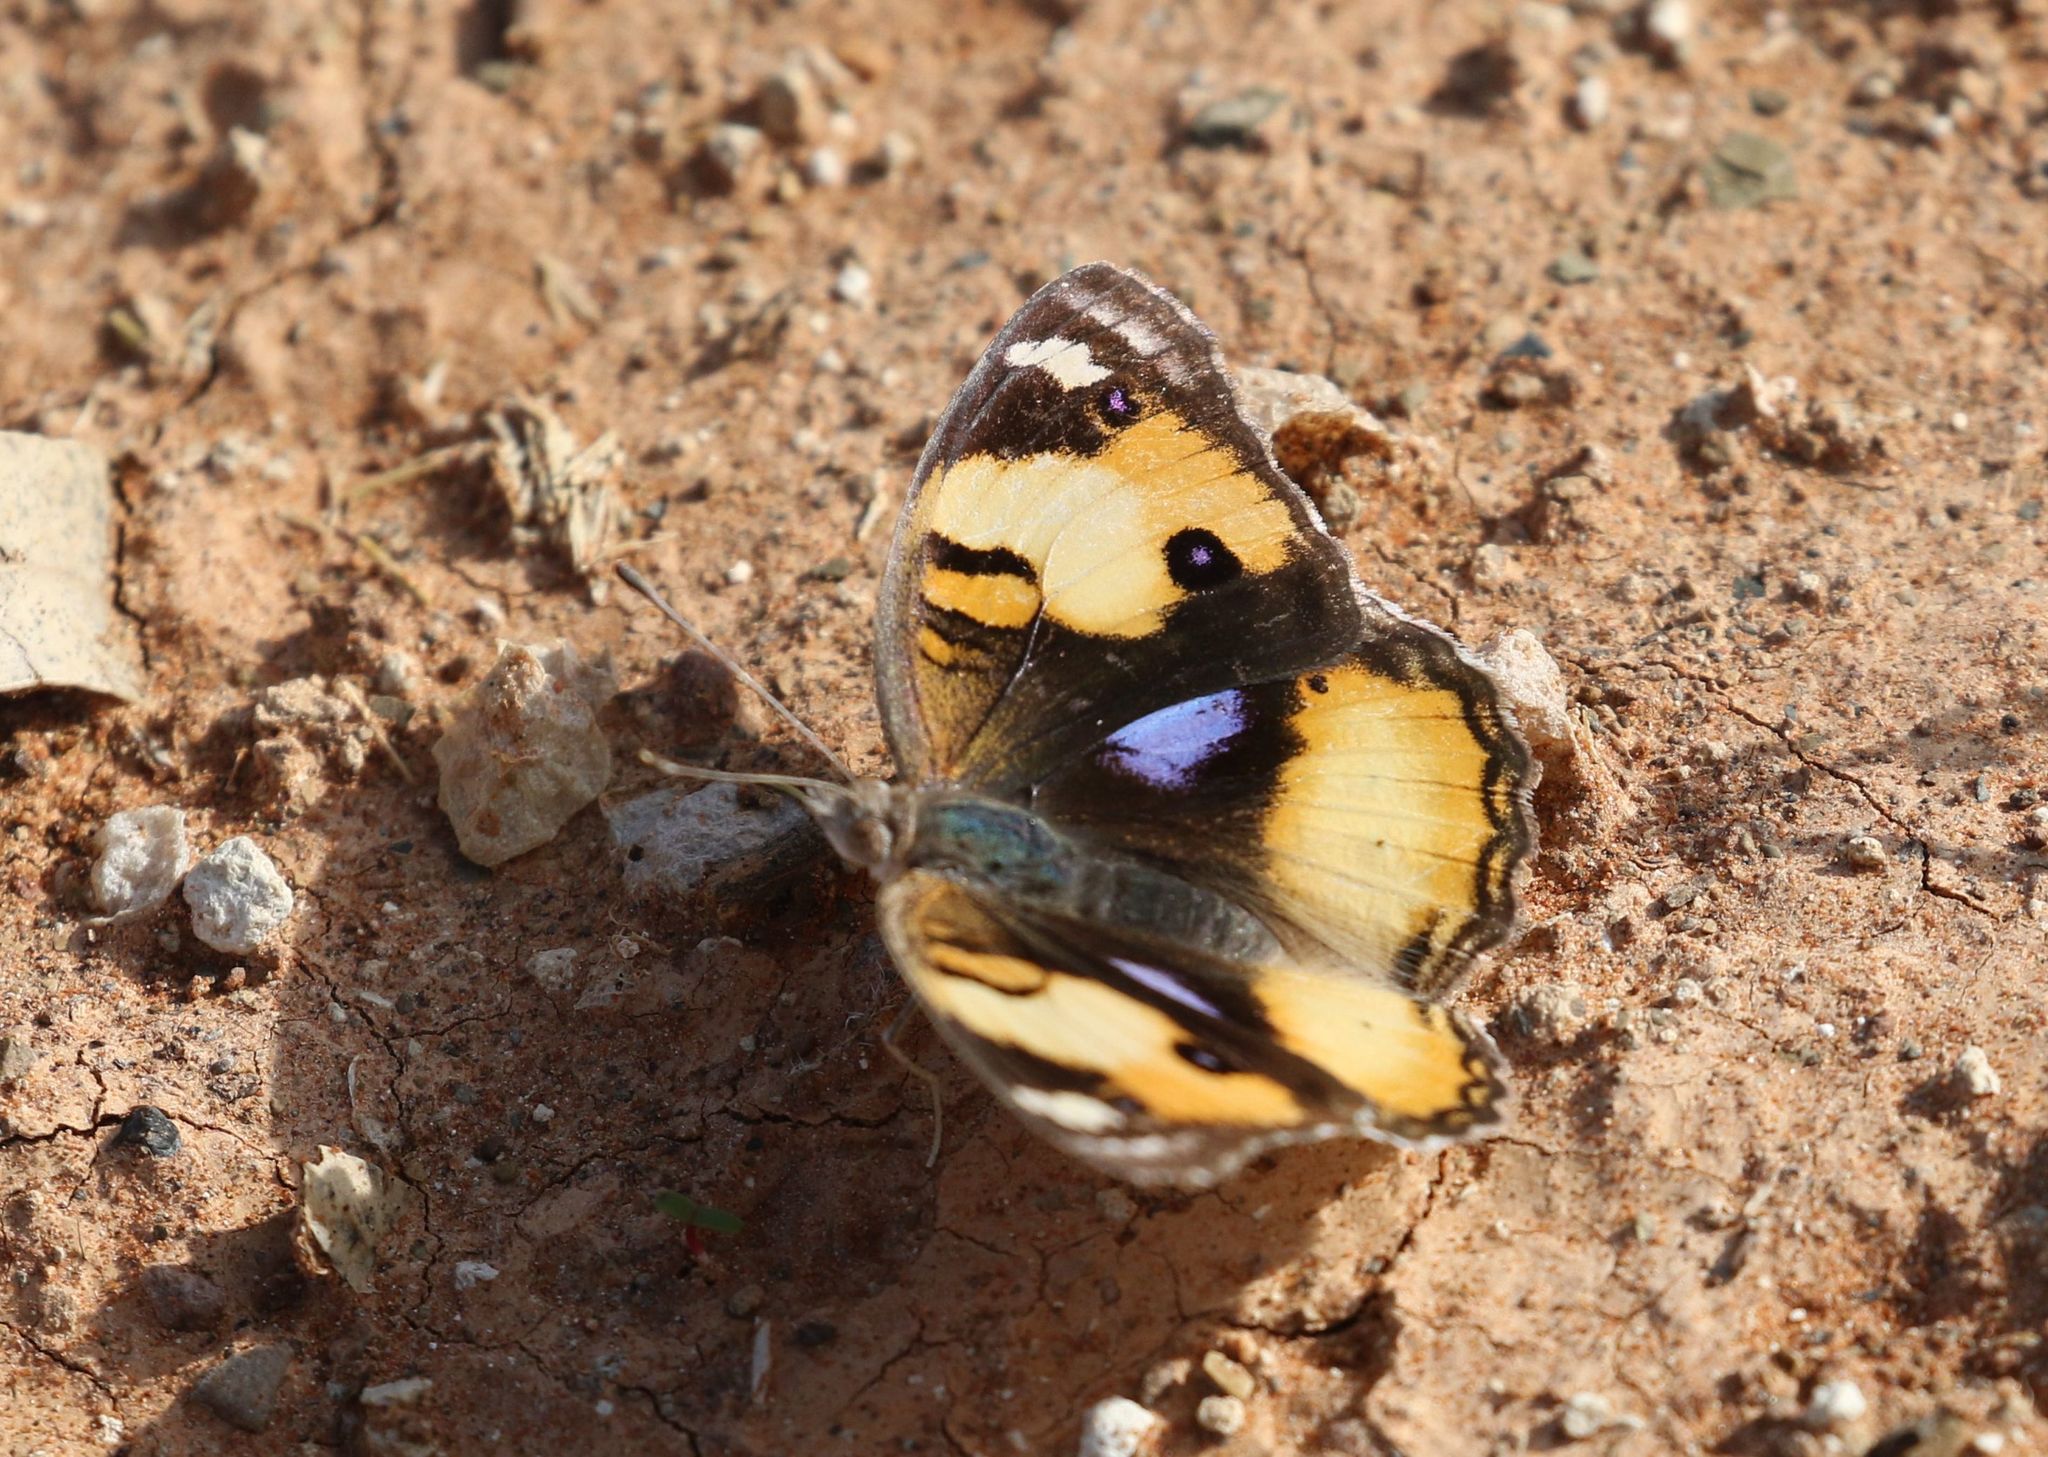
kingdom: Animalia
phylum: Arthropoda
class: Insecta
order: Lepidoptera
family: Nymphalidae
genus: Junonia
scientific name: Junonia hierta
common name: Yellow pansy
